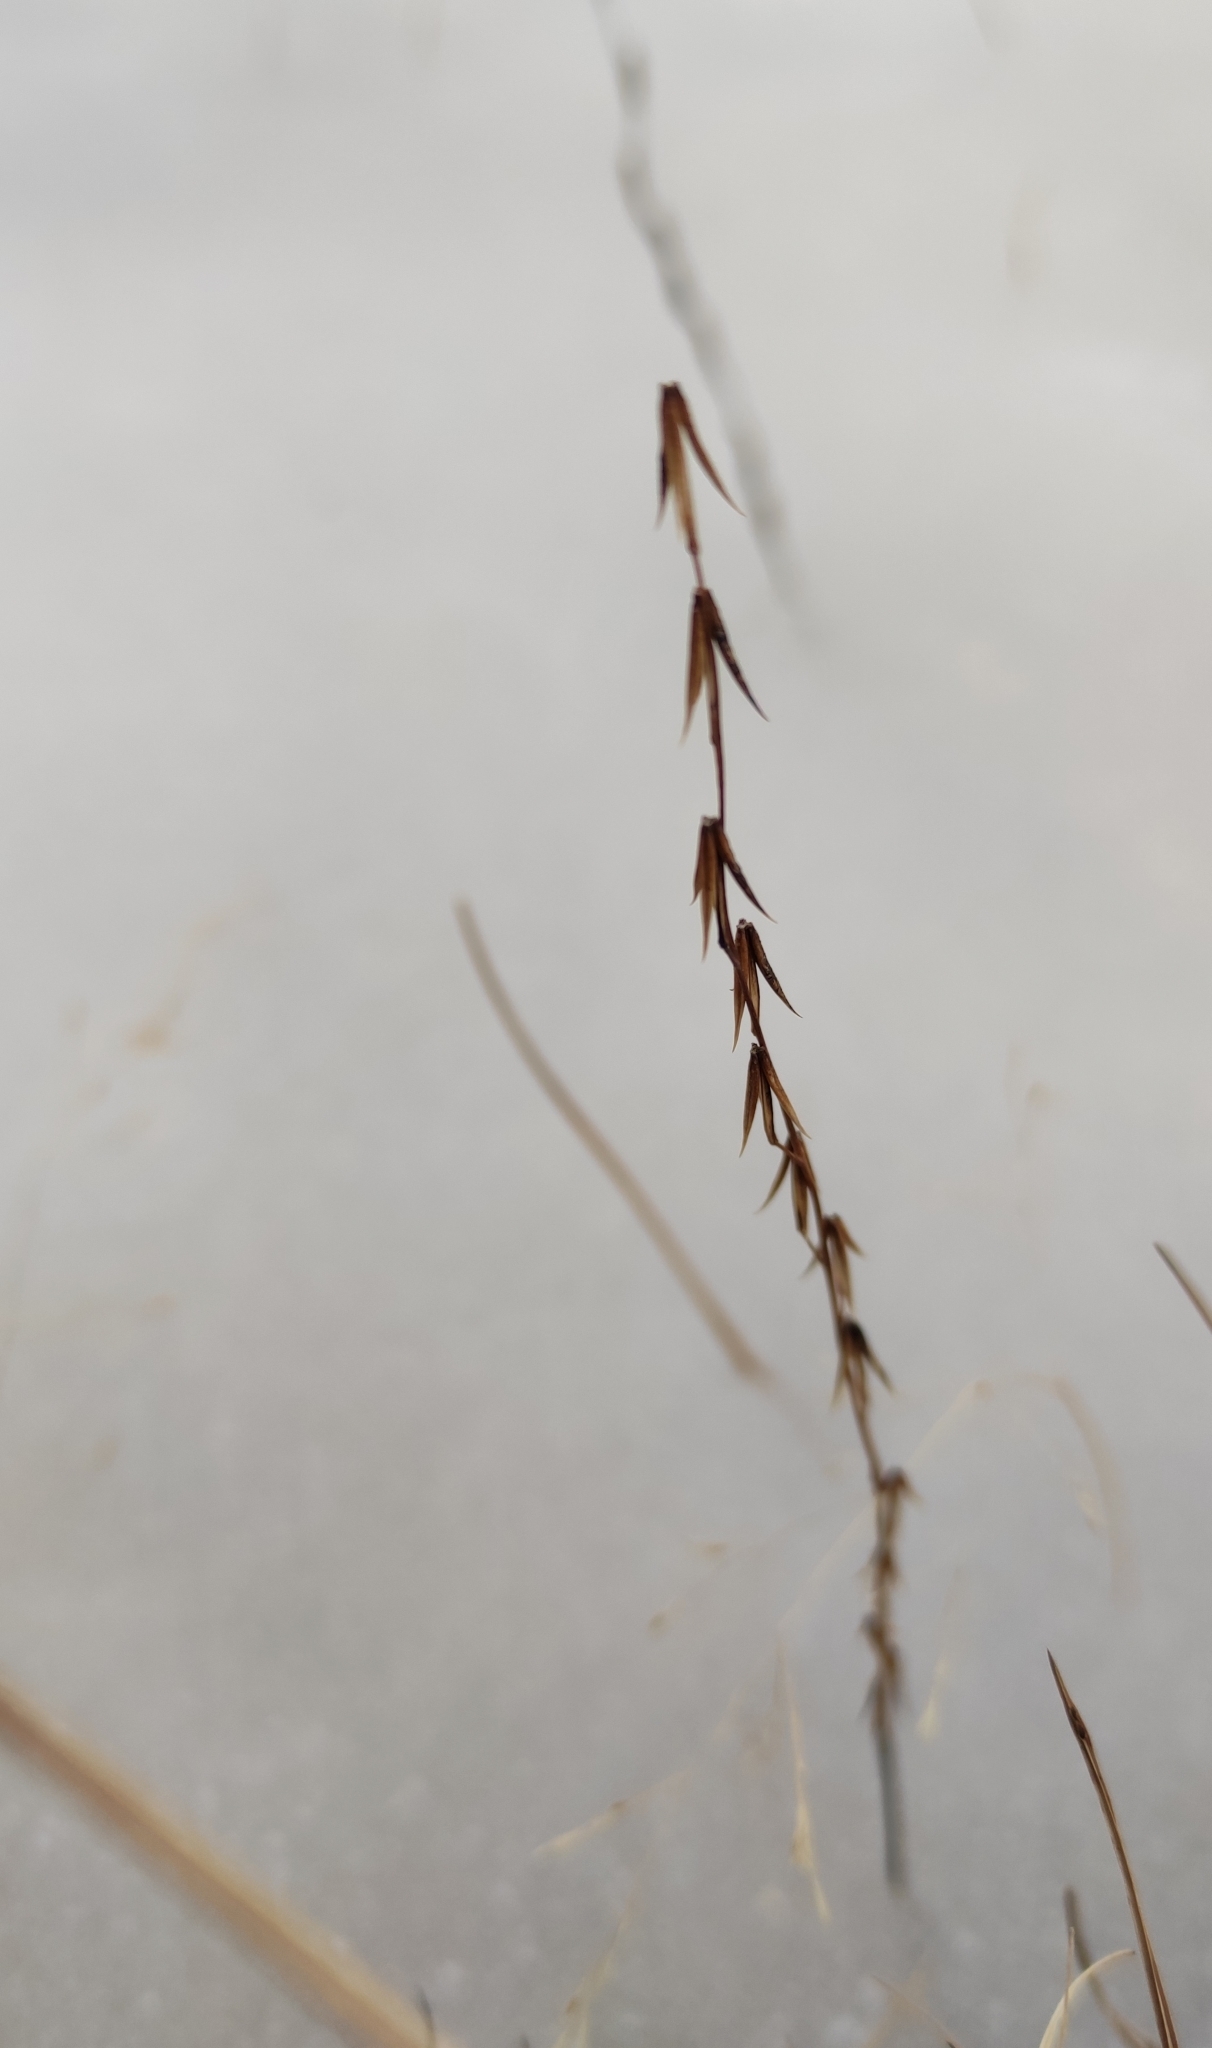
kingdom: Plantae
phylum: Tracheophyta
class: Liliopsida
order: Alismatales
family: Juncaginaceae
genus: Triglochin
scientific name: Triglochin palustris
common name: Marsh arrowgrass
